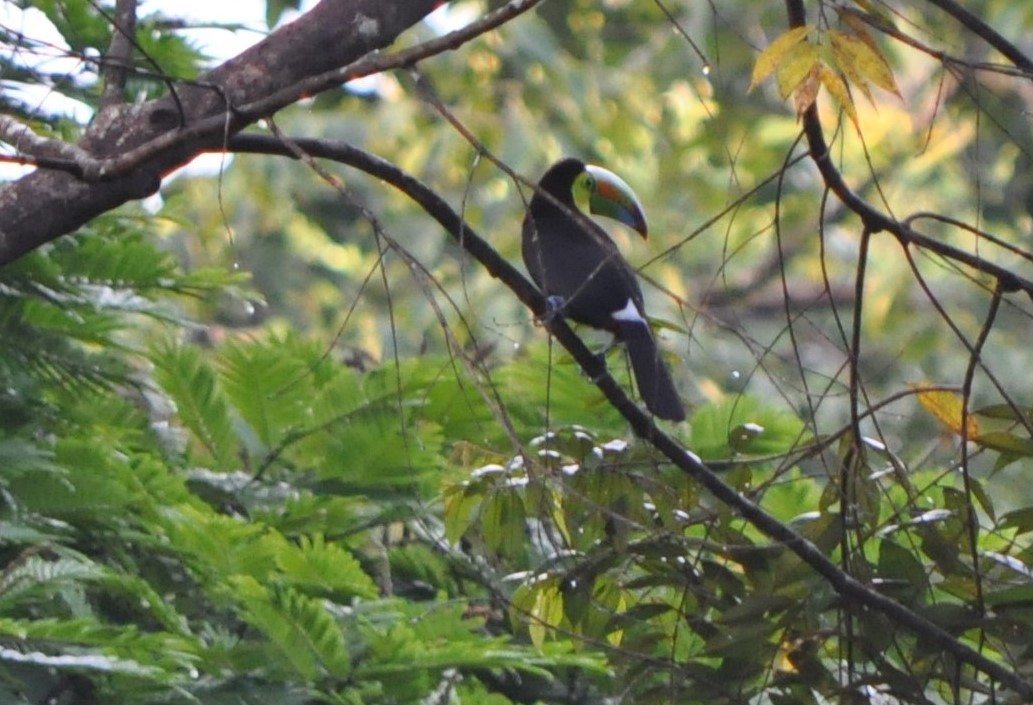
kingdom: Animalia
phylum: Chordata
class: Aves
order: Piciformes
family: Ramphastidae
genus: Ramphastos
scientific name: Ramphastos sulfuratus
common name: Keel-billed toucan
